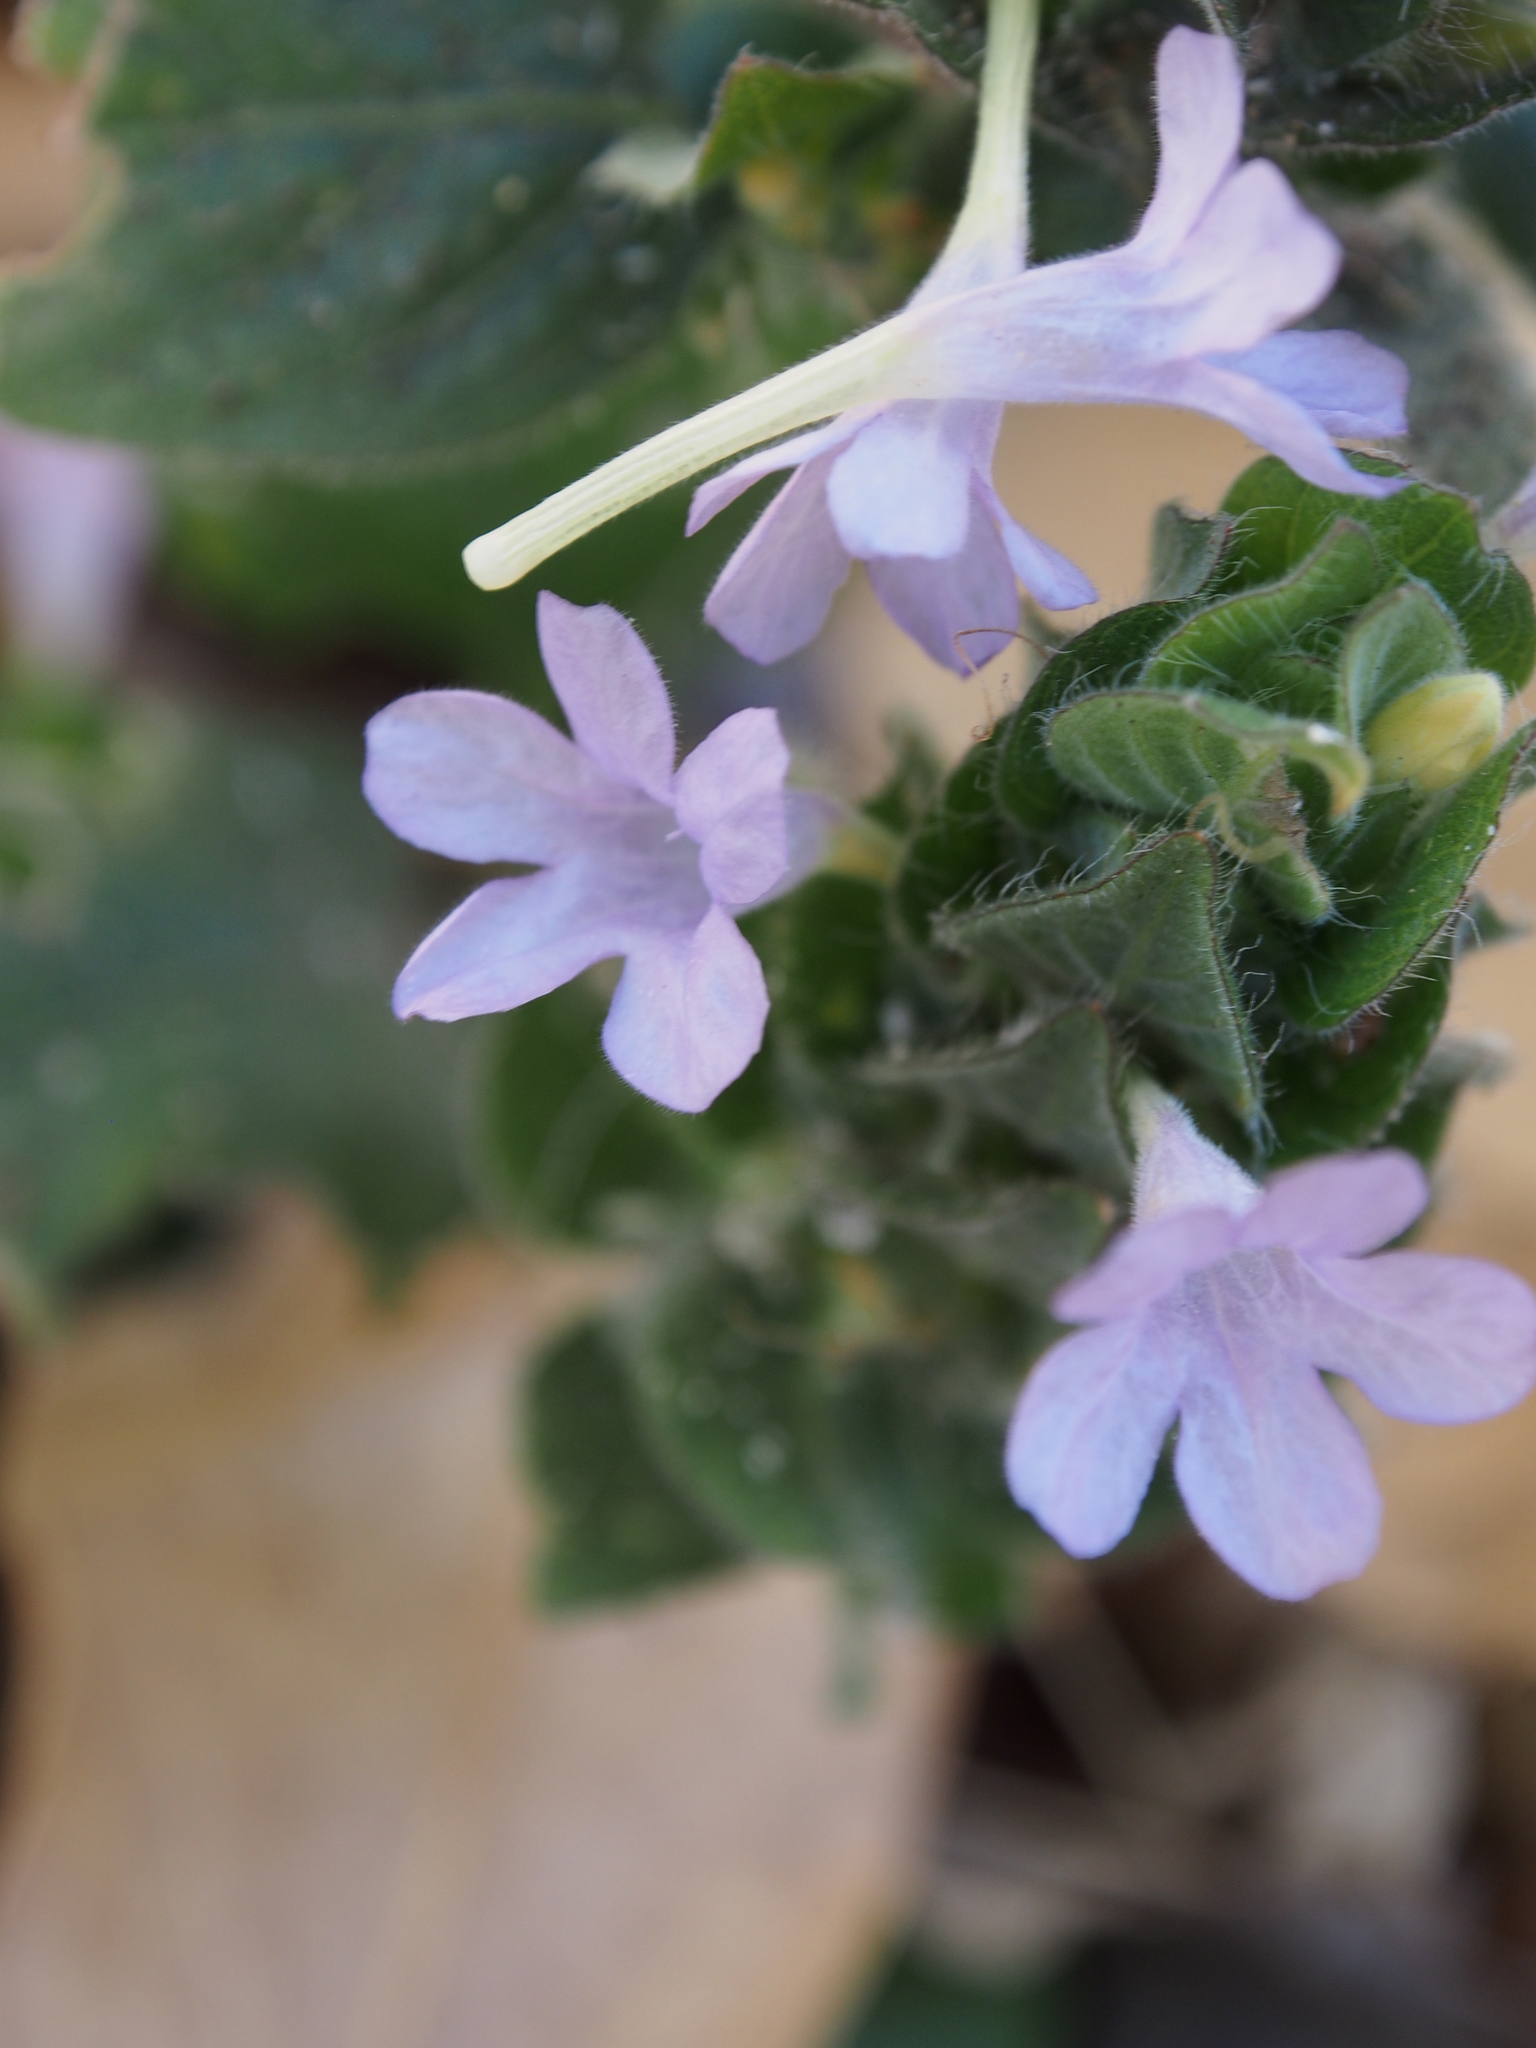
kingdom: Plantae
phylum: Tracheophyta
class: Magnoliopsida
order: Lamiales
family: Acanthaceae
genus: Ruellia
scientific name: Ruellia blechum
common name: Browne's blechum
